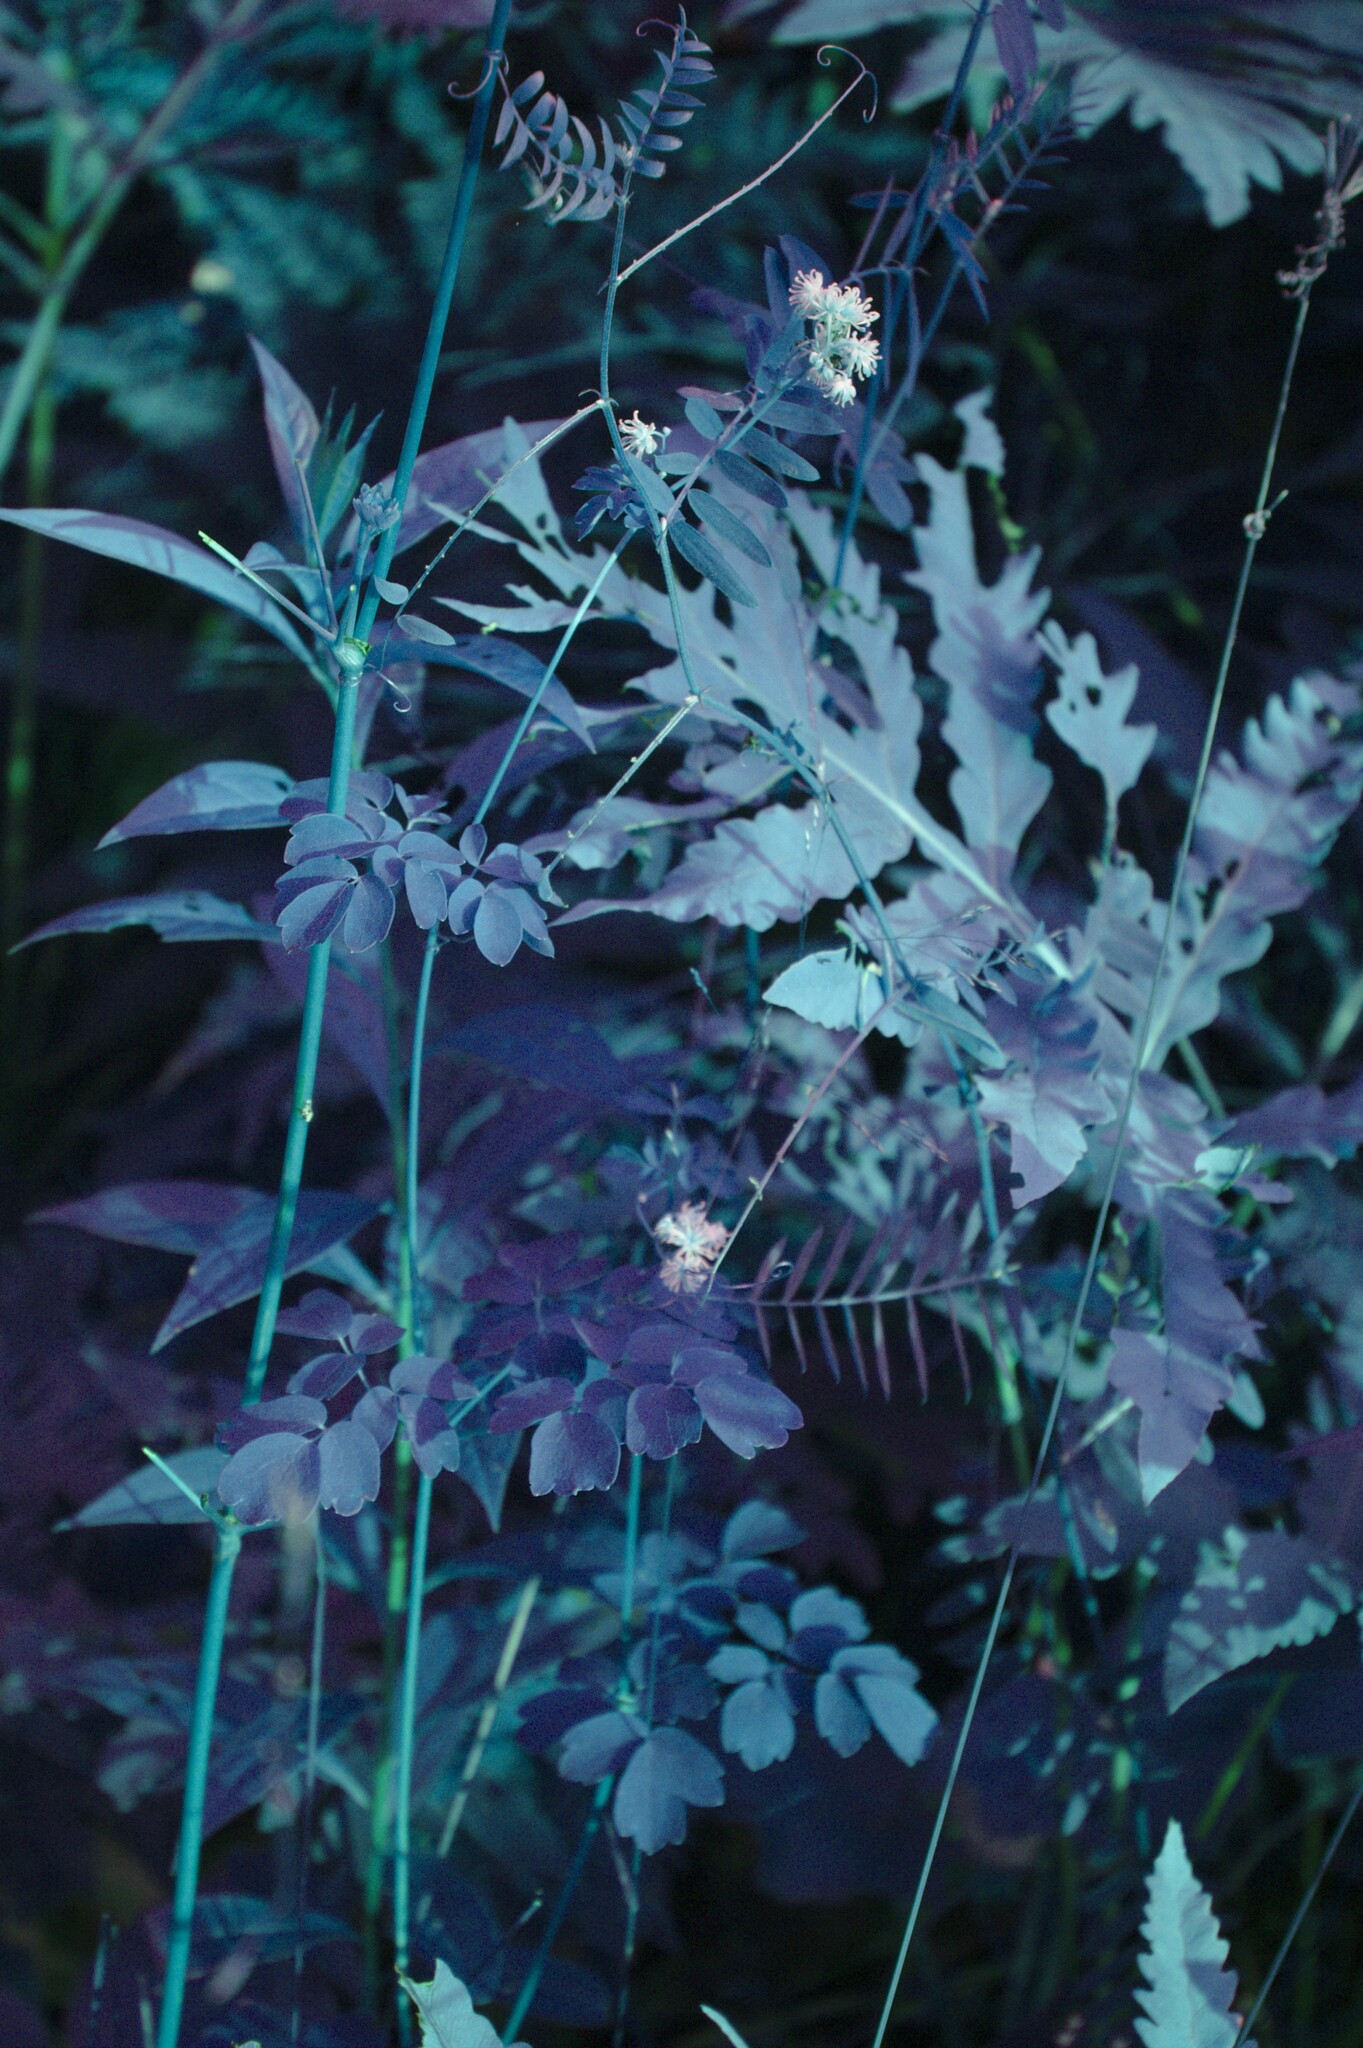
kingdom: Plantae
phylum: Tracheophyta
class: Polypodiopsida
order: Polypodiales
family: Onocleaceae
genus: Onoclea
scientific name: Onoclea sensibilis
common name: Sensitive fern
